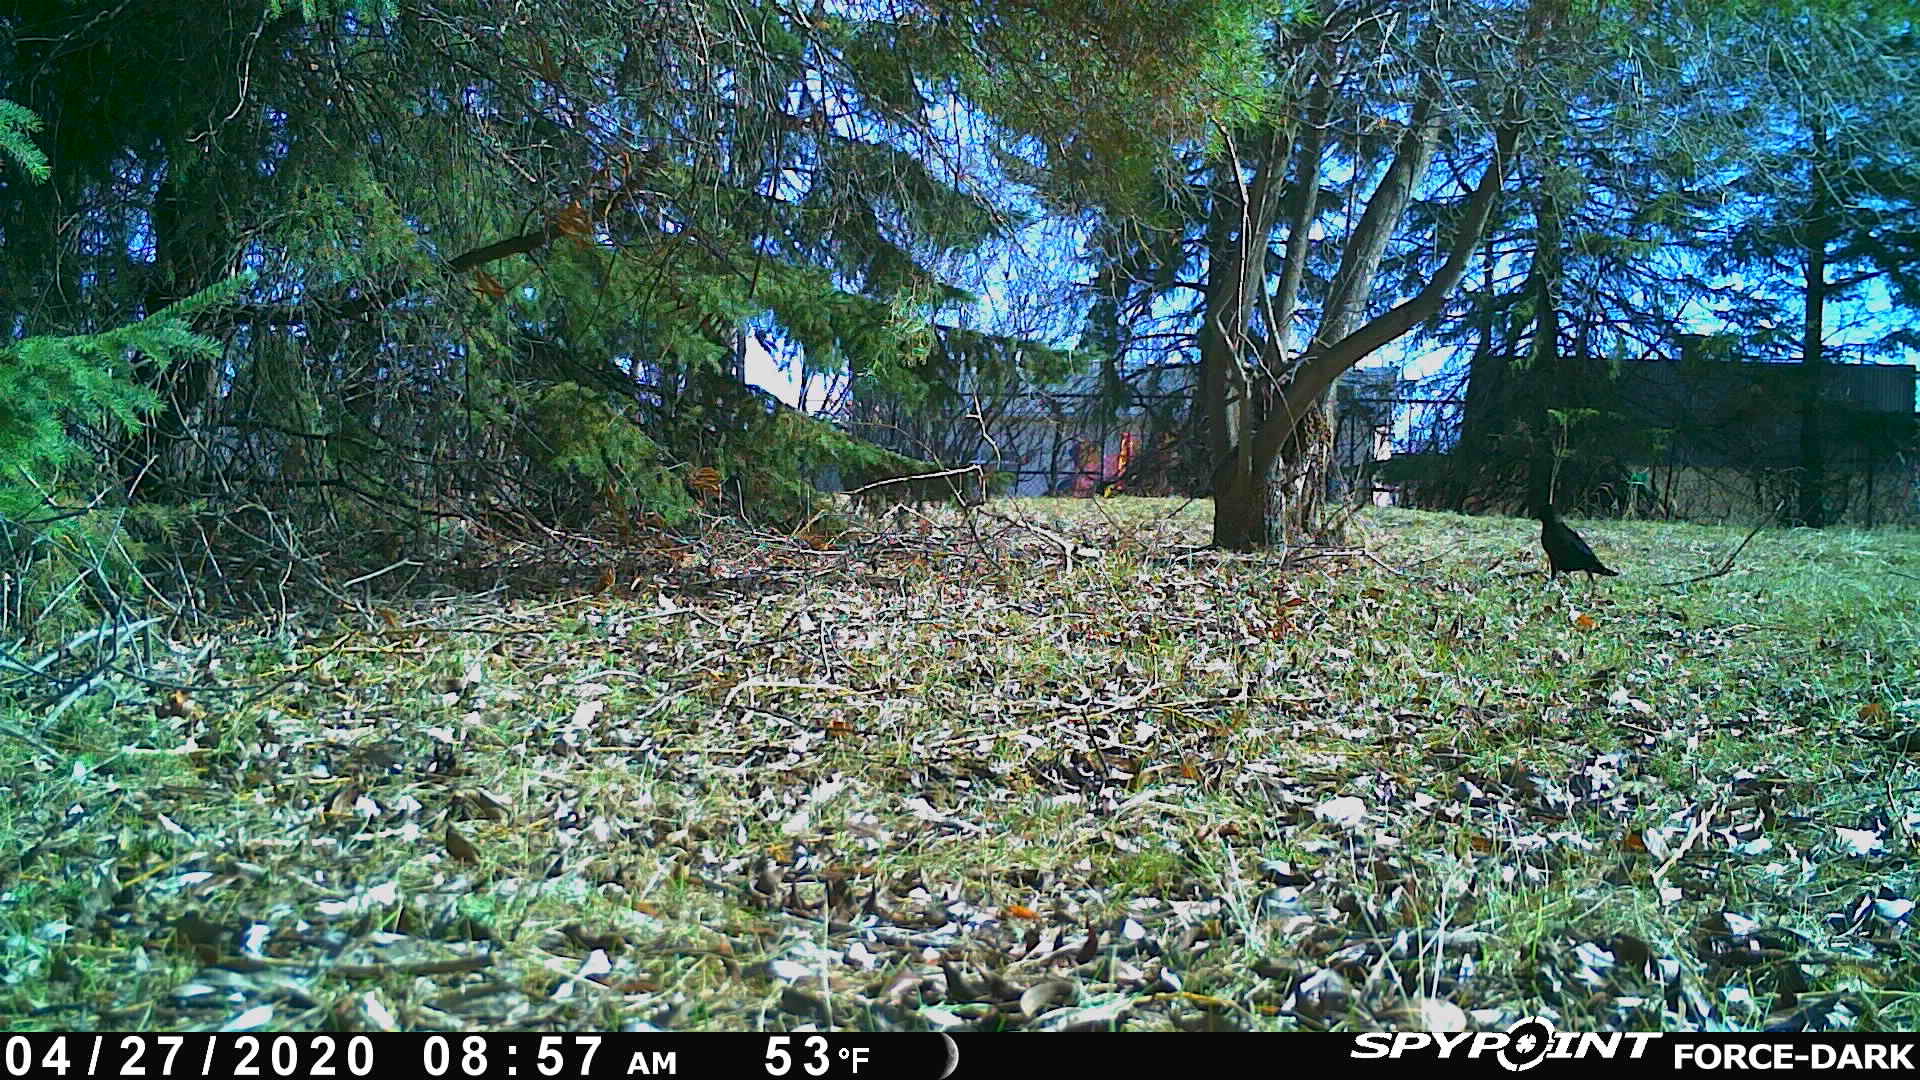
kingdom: Animalia
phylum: Chordata
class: Aves
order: Passeriformes
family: Corvidae
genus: Corvus
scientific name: Corvus brachyrhynchos
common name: American crow
